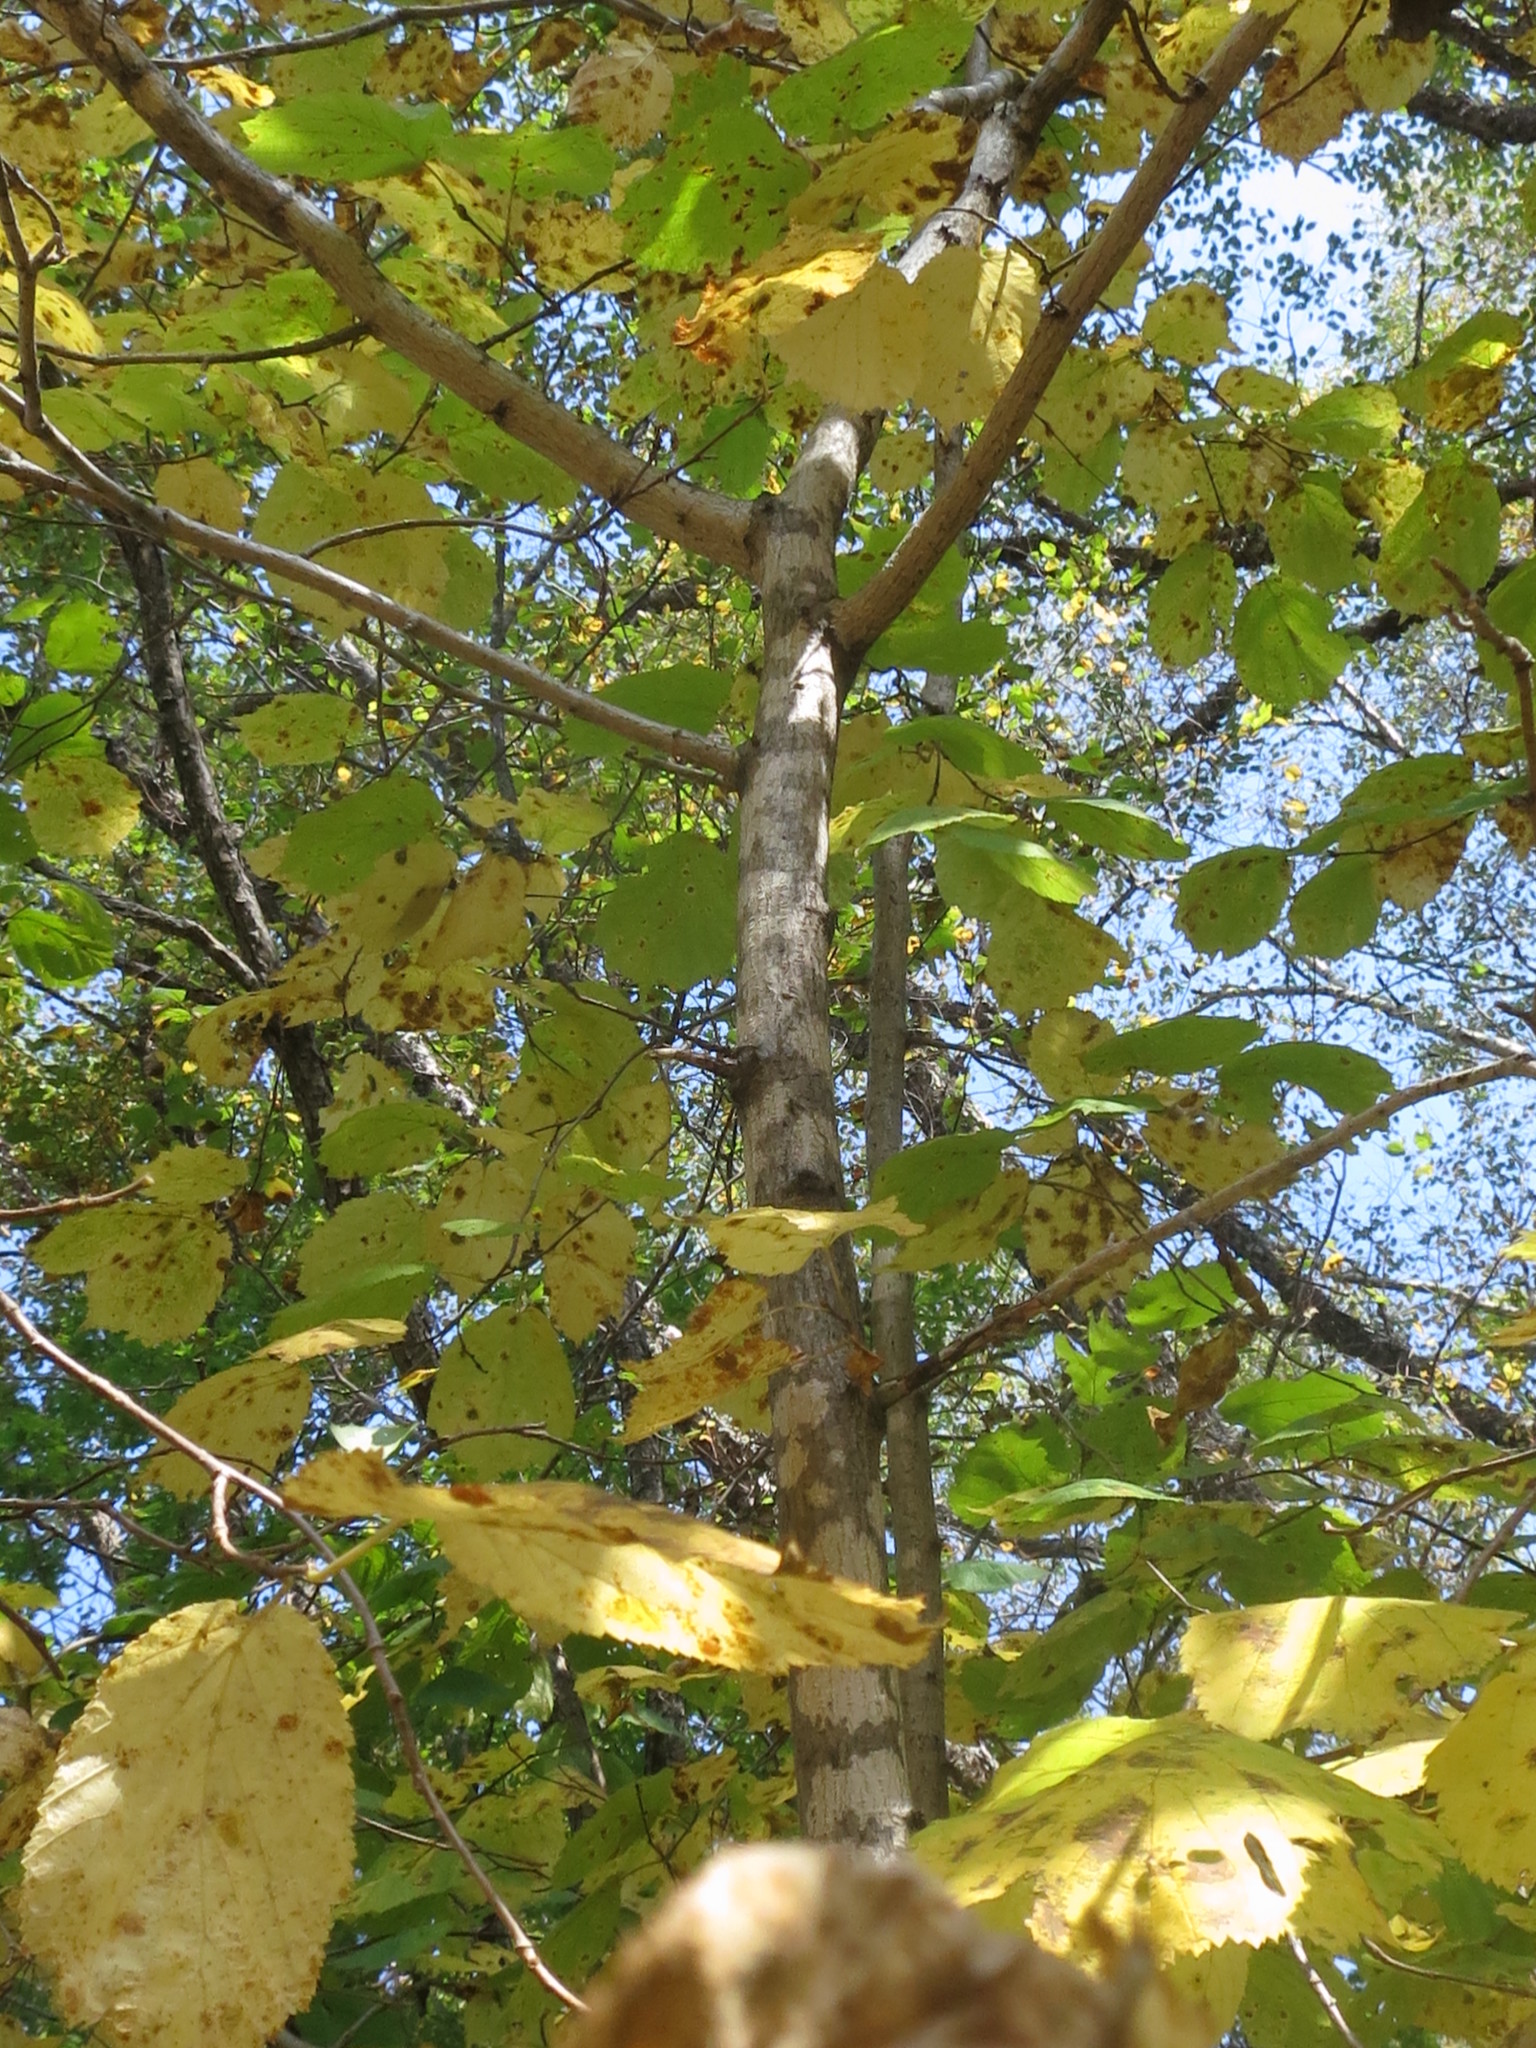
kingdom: Plantae
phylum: Tracheophyta
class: Magnoliopsida
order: Fagales
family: Betulaceae
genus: Corylus
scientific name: Corylus sieboldiana
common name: Japanese hazel
